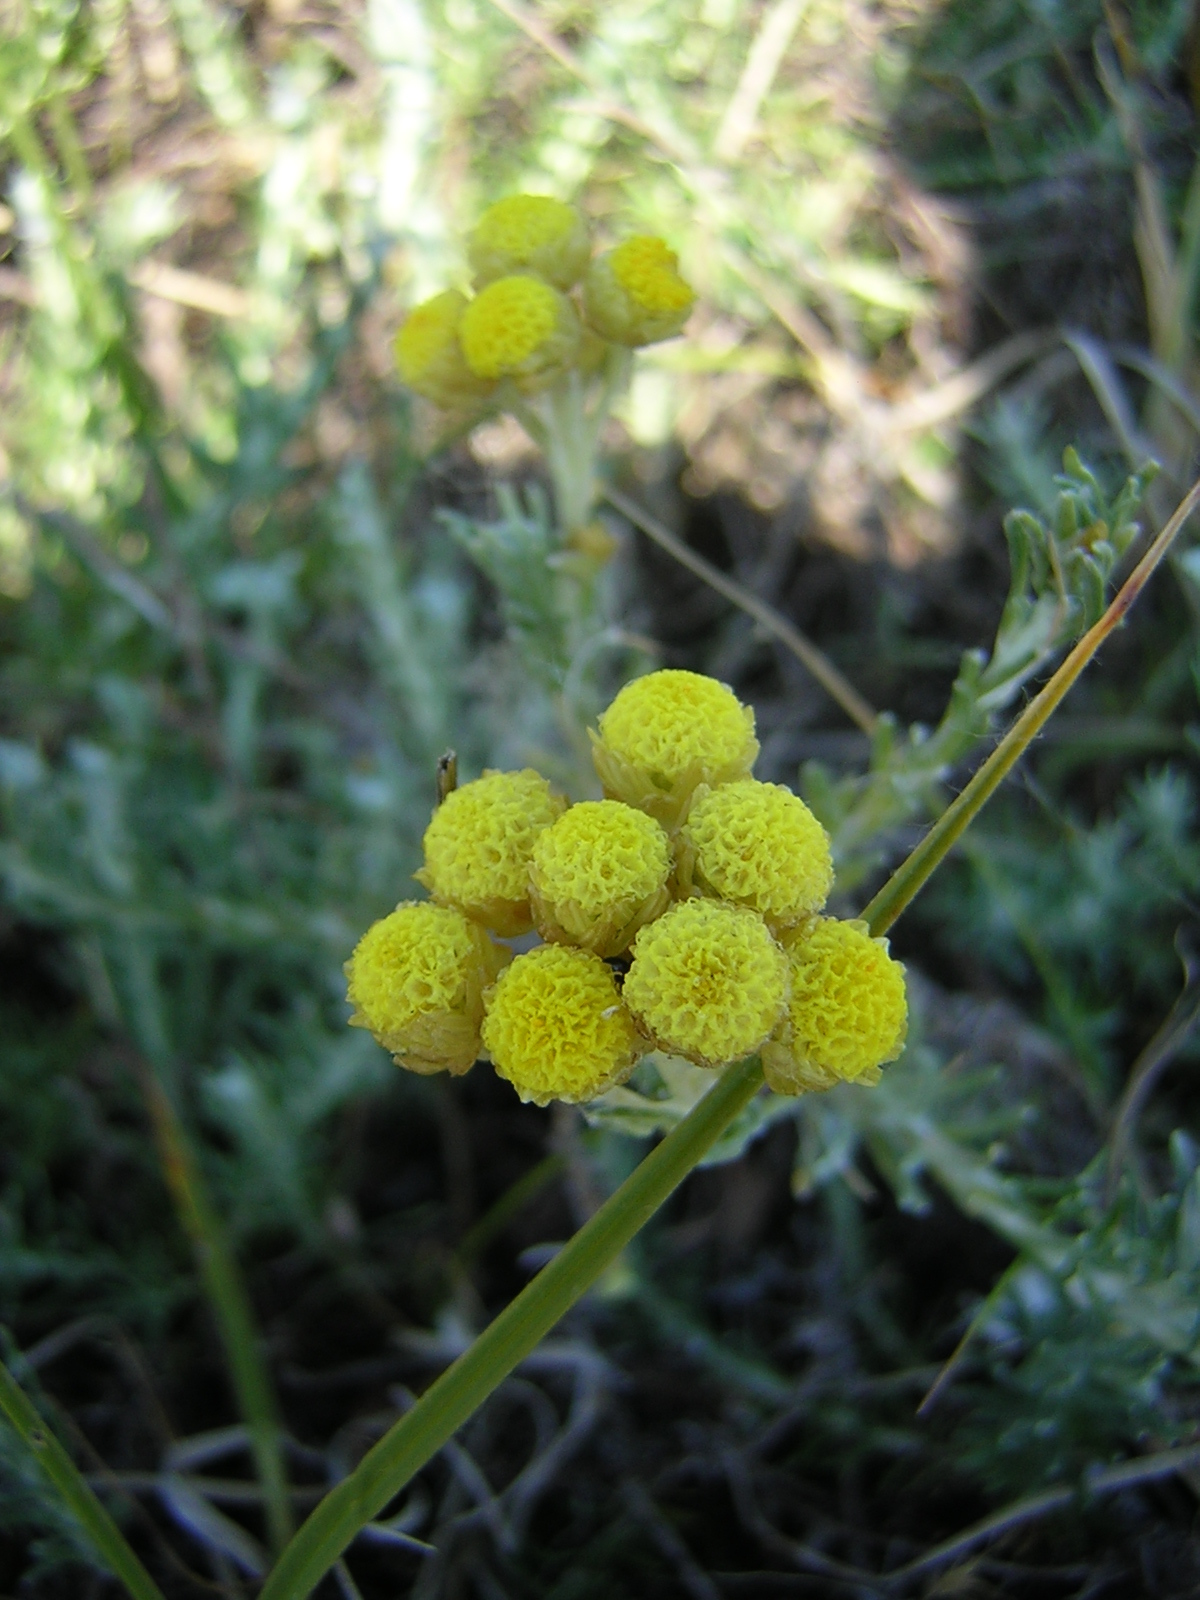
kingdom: Plantae
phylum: Tracheophyta
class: Magnoliopsida
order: Asterales
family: Asteraceae
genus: Helichrysum
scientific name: Helichrysum stoechas
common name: Goldilocks
